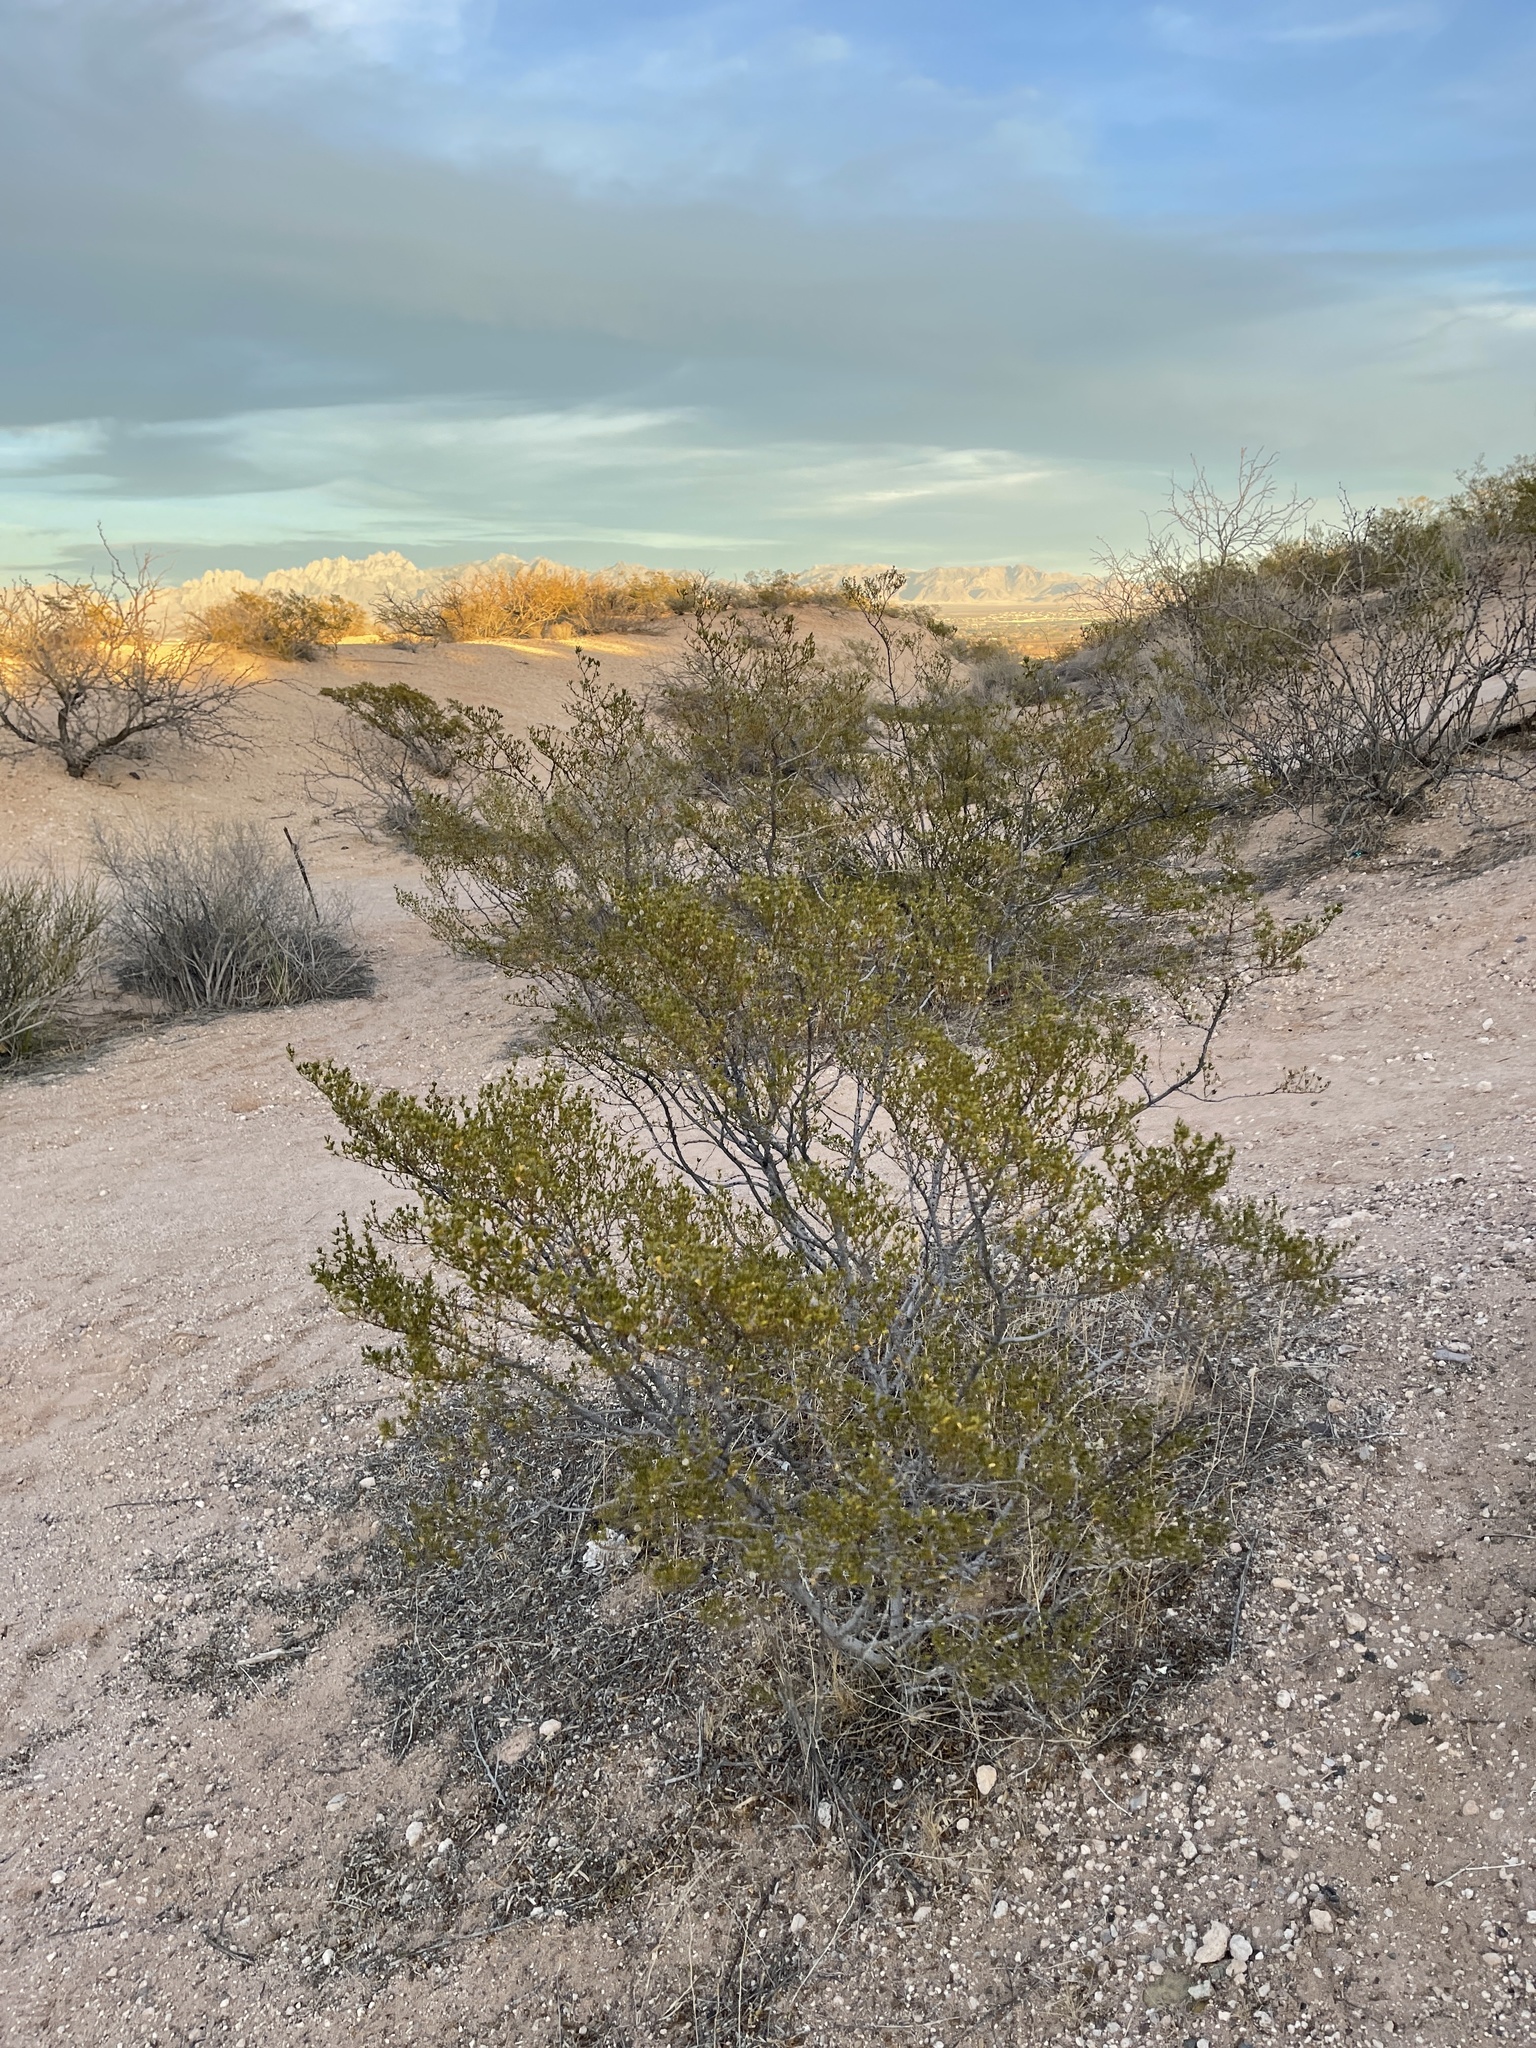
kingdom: Plantae
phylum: Tracheophyta
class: Magnoliopsida
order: Zygophyllales
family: Zygophyllaceae
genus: Larrea
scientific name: Larrea tridentata
